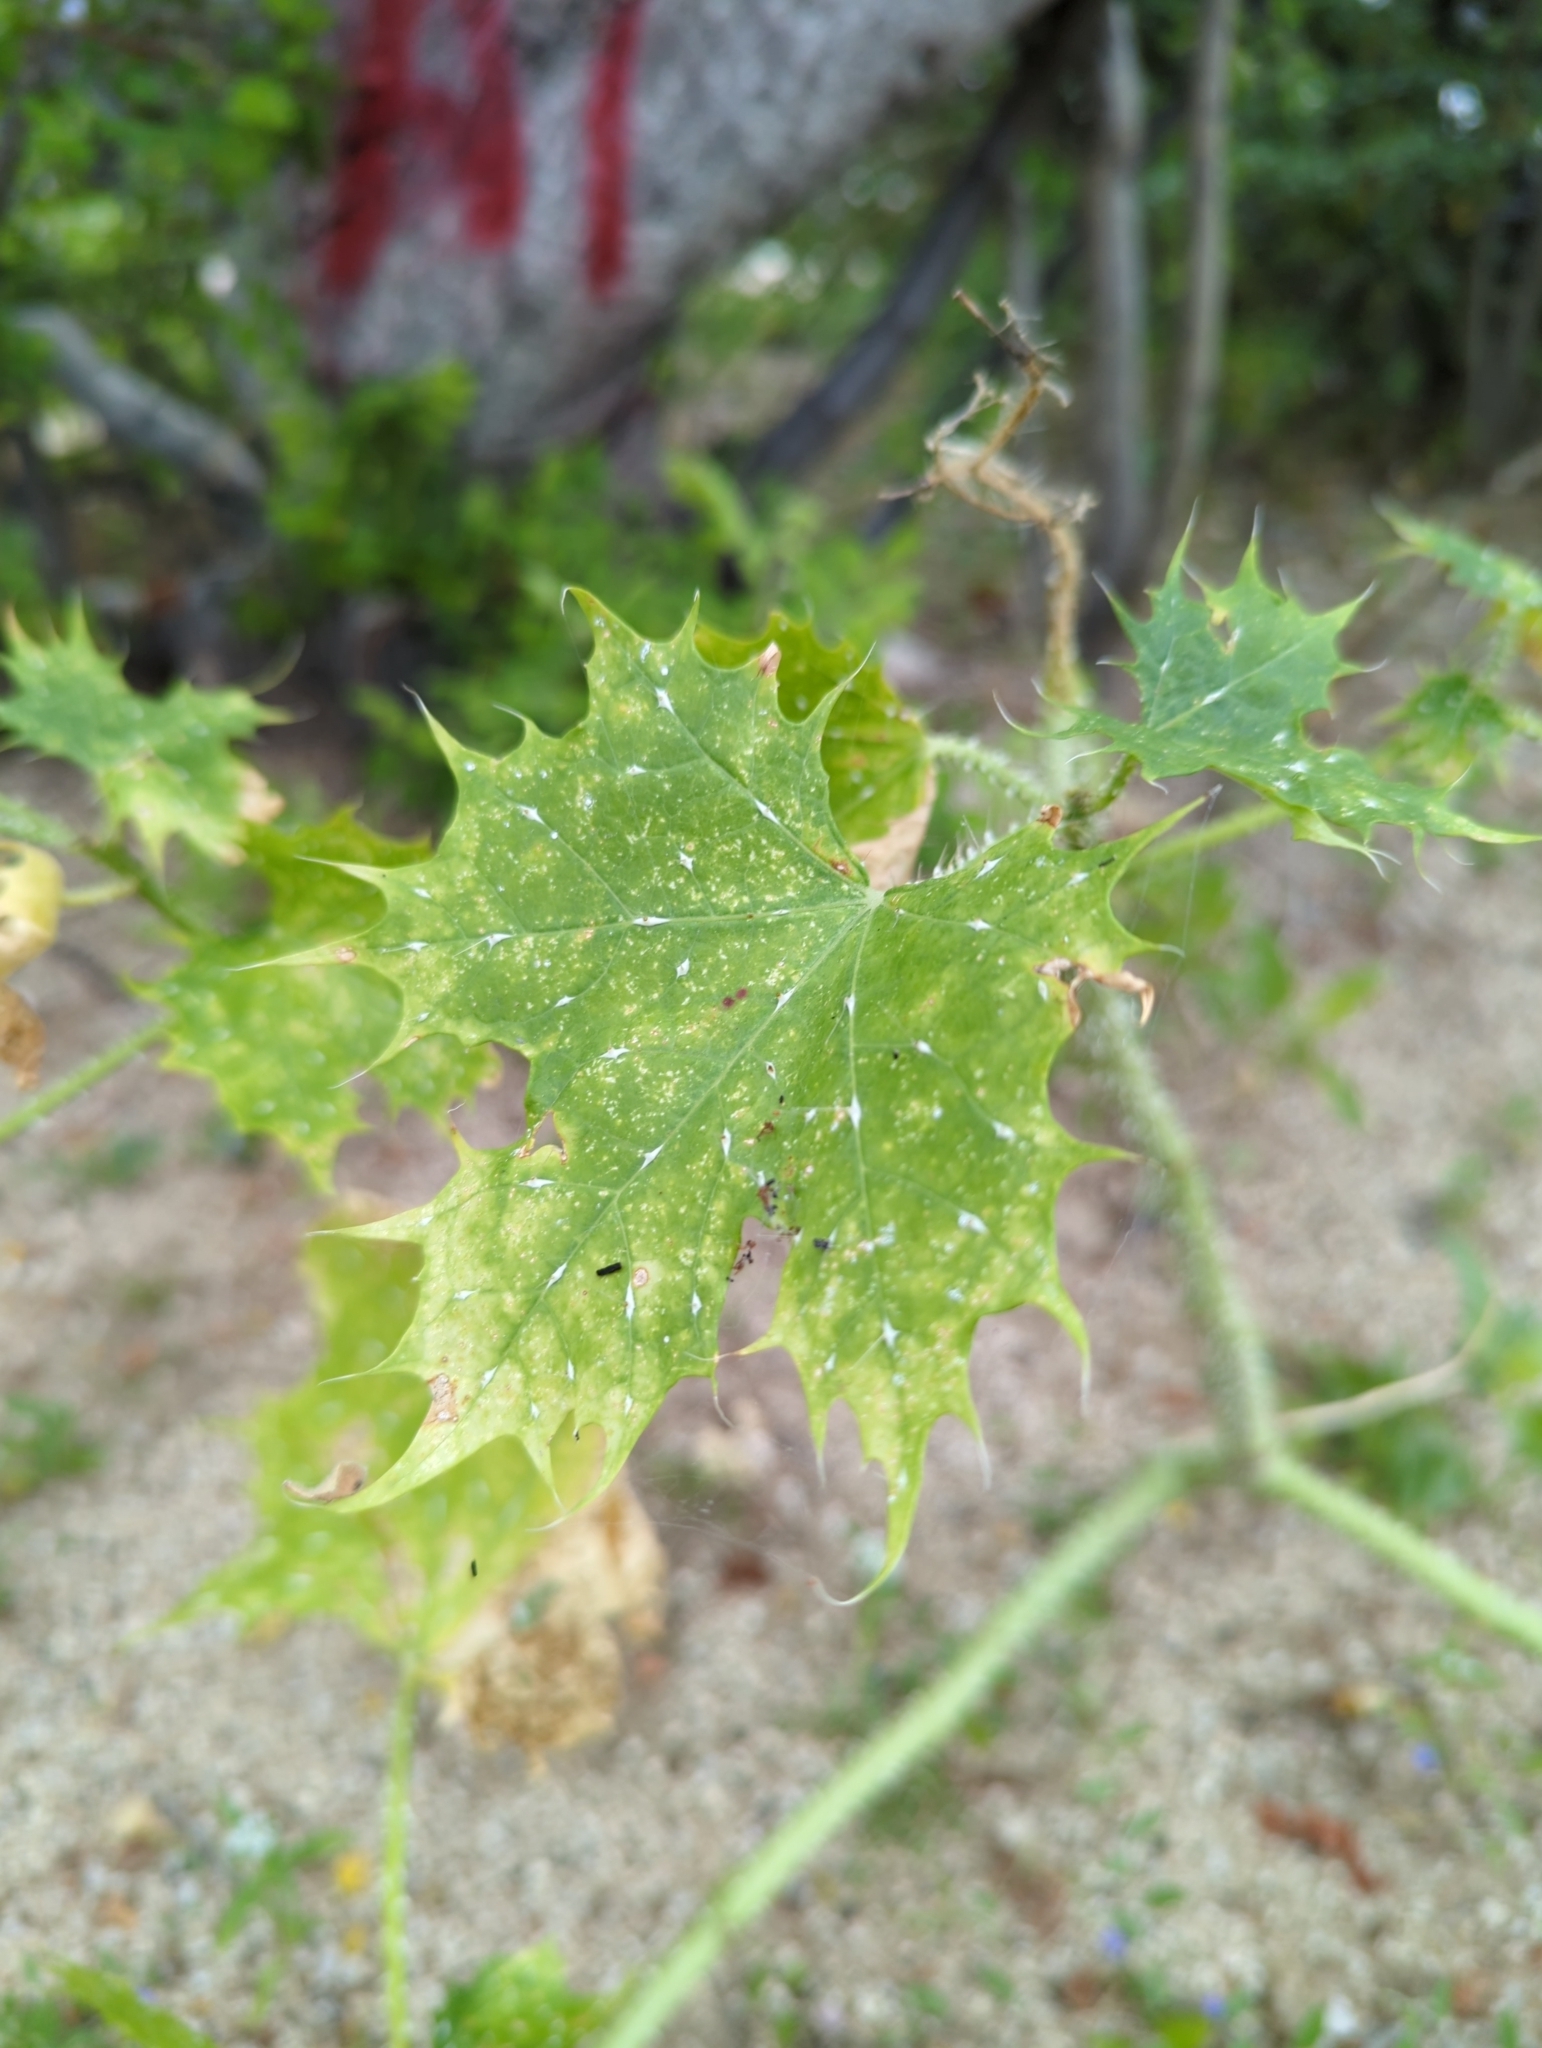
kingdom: Plantae
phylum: Tracheophyta
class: Magnoliopsida
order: Malpighiales
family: Euphorbiaceae
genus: Cnidoscolus
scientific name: Cnidoscolus maculatus
